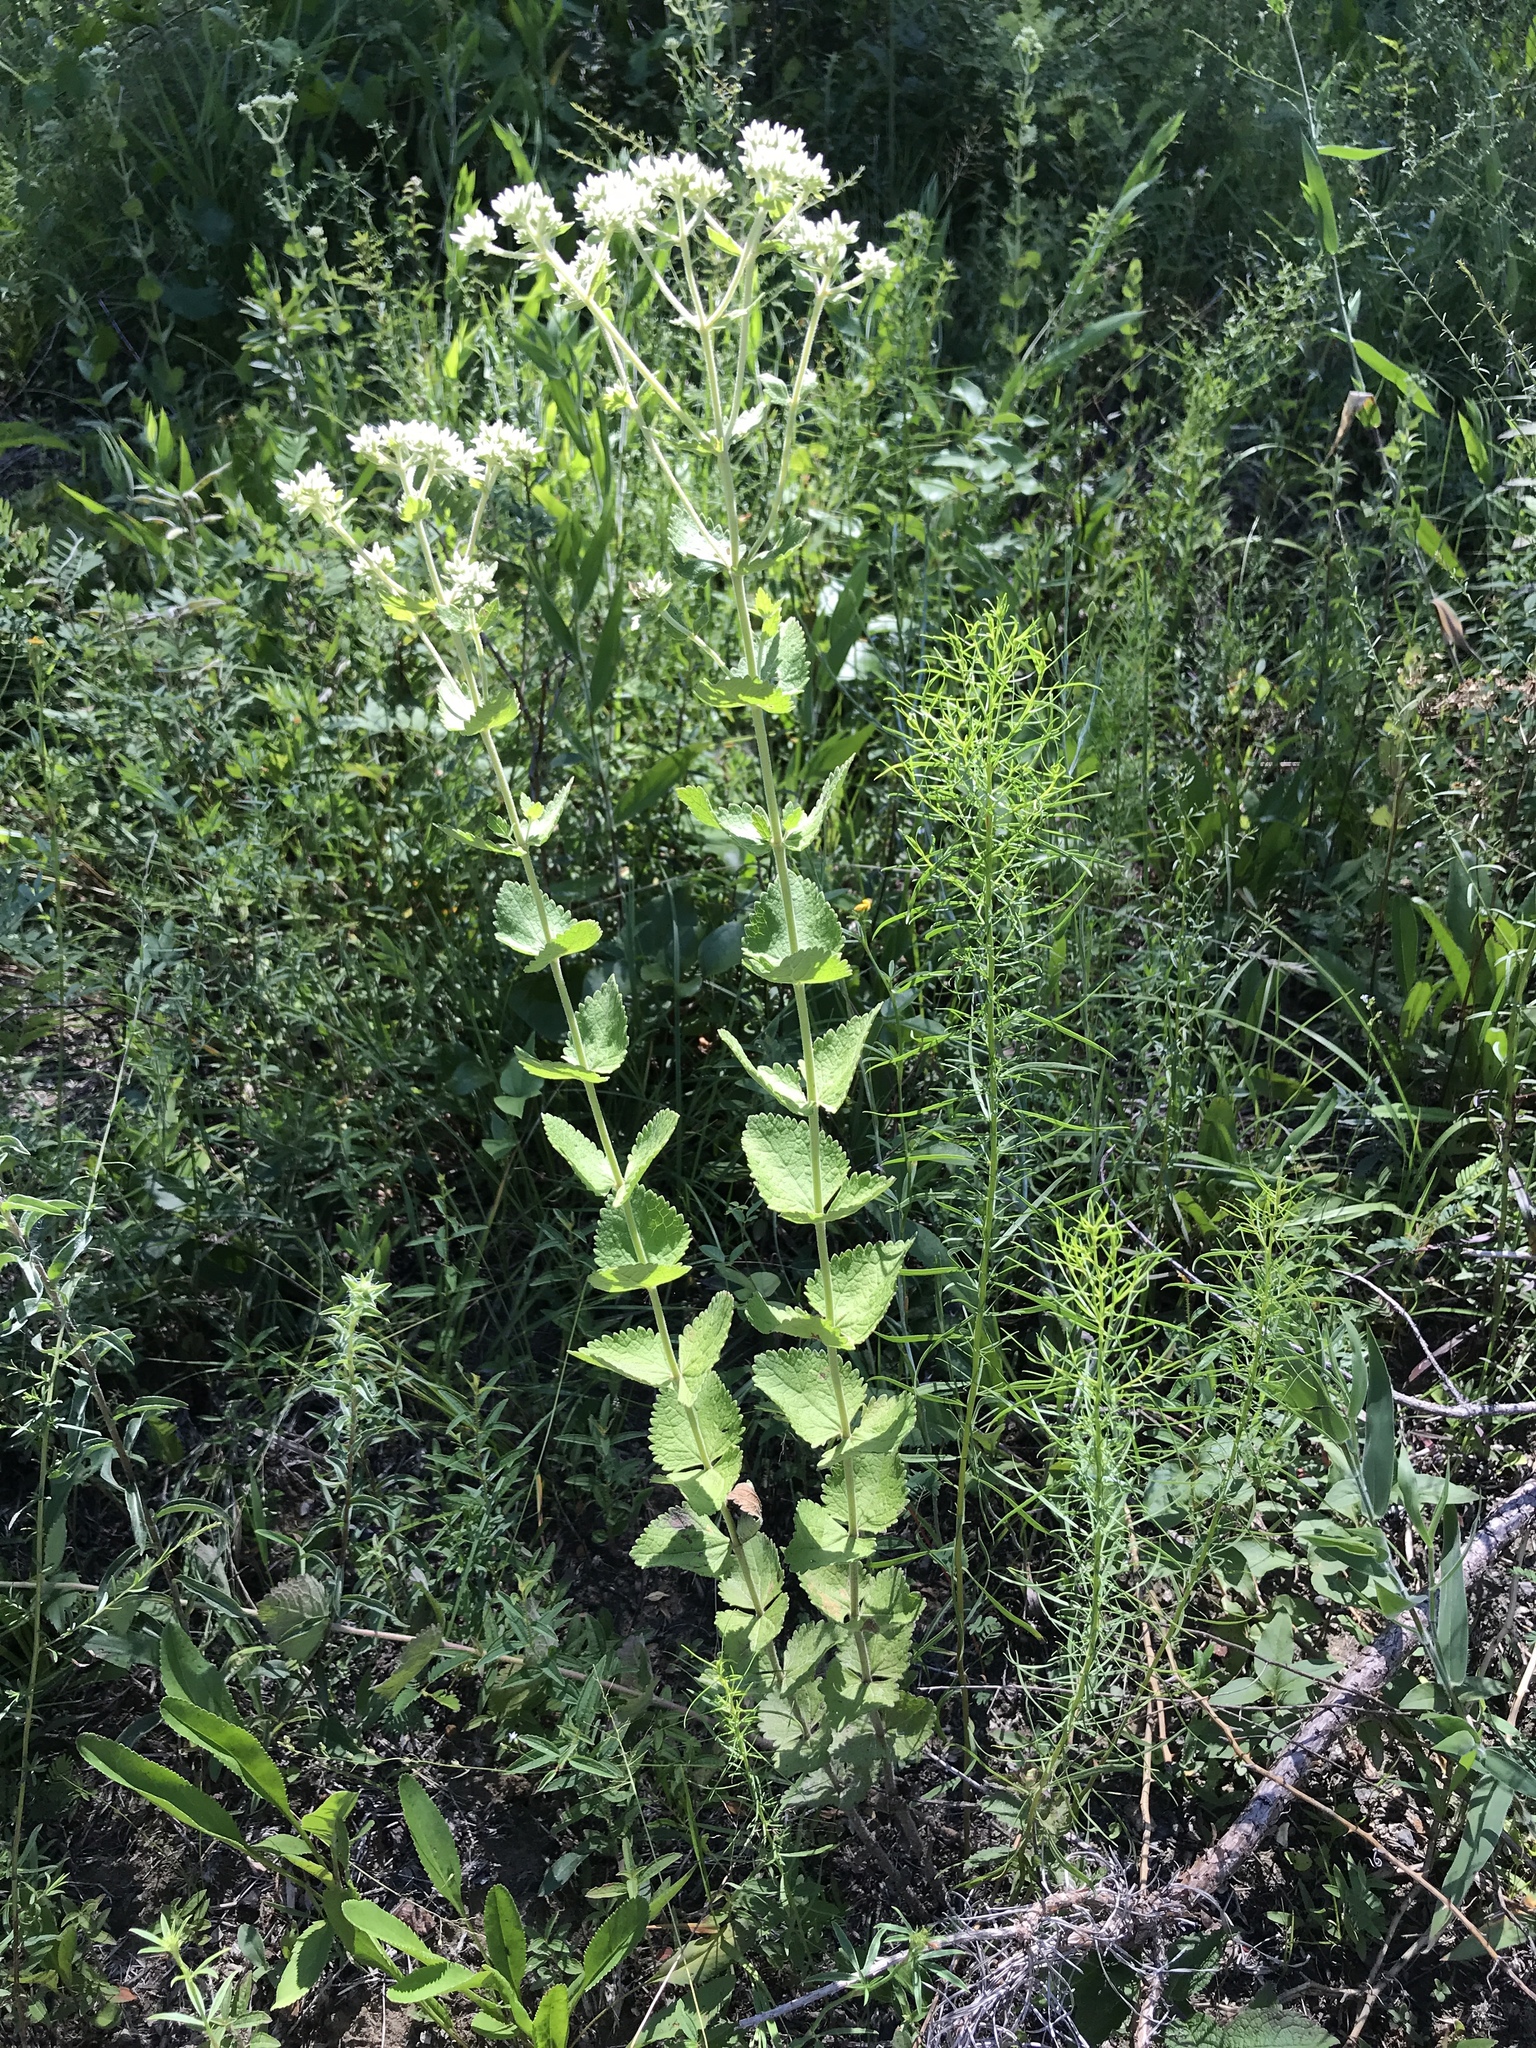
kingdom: Plantae
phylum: Tracheophyta
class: Magnoliopsida
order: Asterales
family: Asteraceae
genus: Eupatorium
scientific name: Eupatorium rotundifolium
